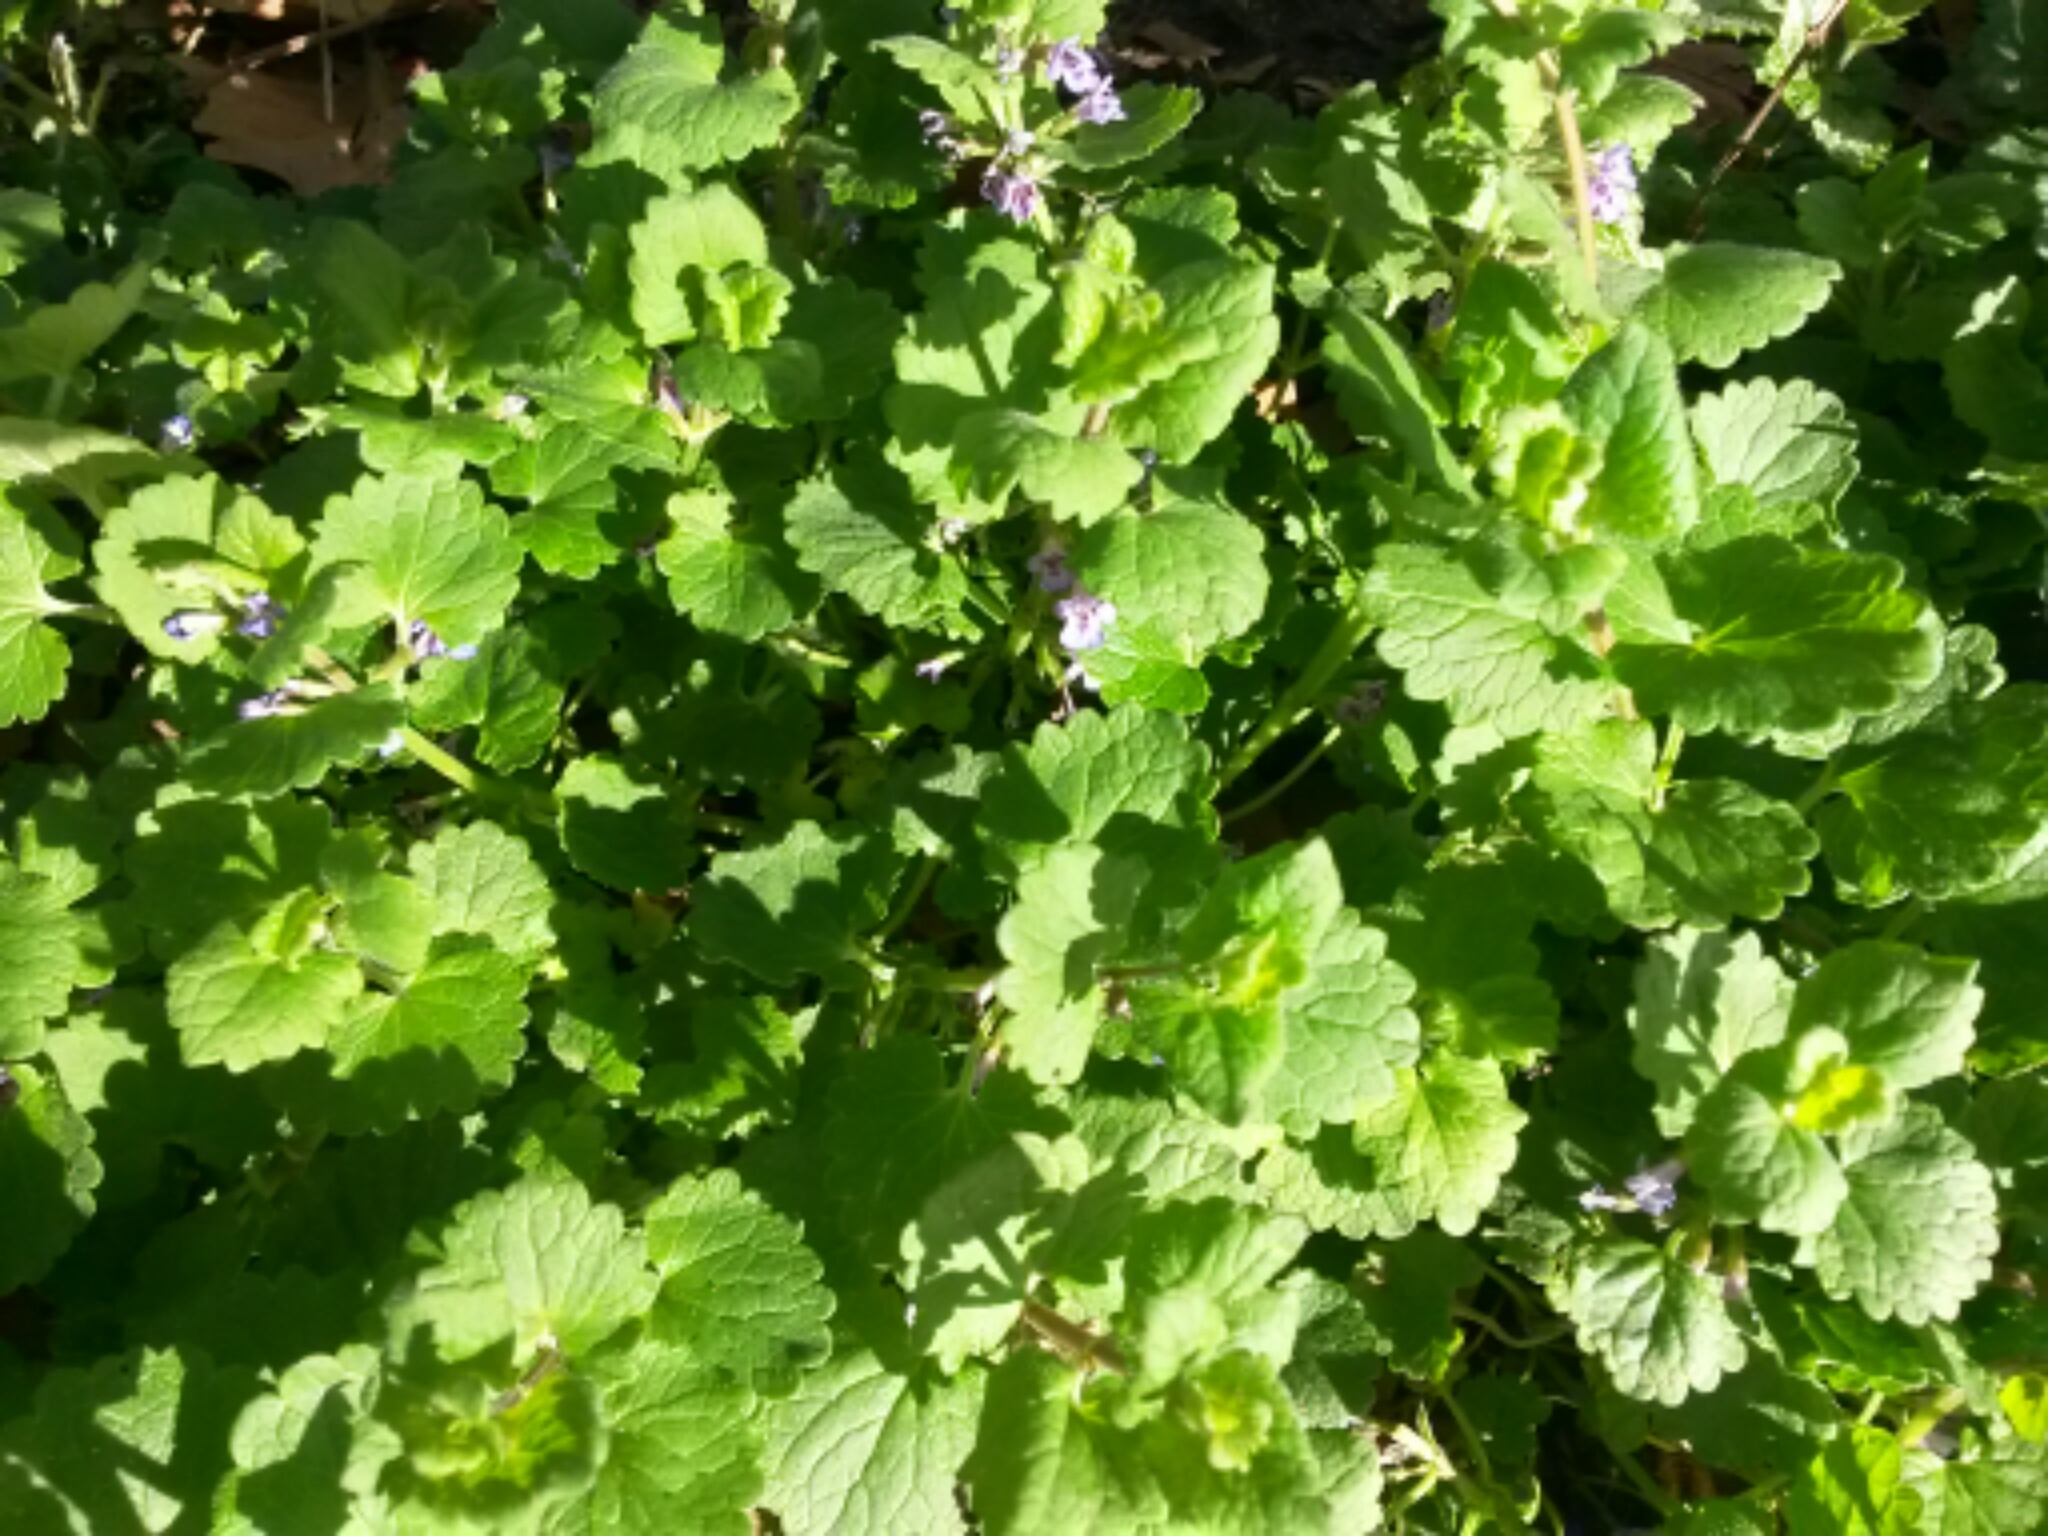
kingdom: Plantae
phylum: Tracheophyta
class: Magnoliopsida
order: Lamiales
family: Lamiaceae
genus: Glechoma
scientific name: Glechoma hederacea
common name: Ground ivy
